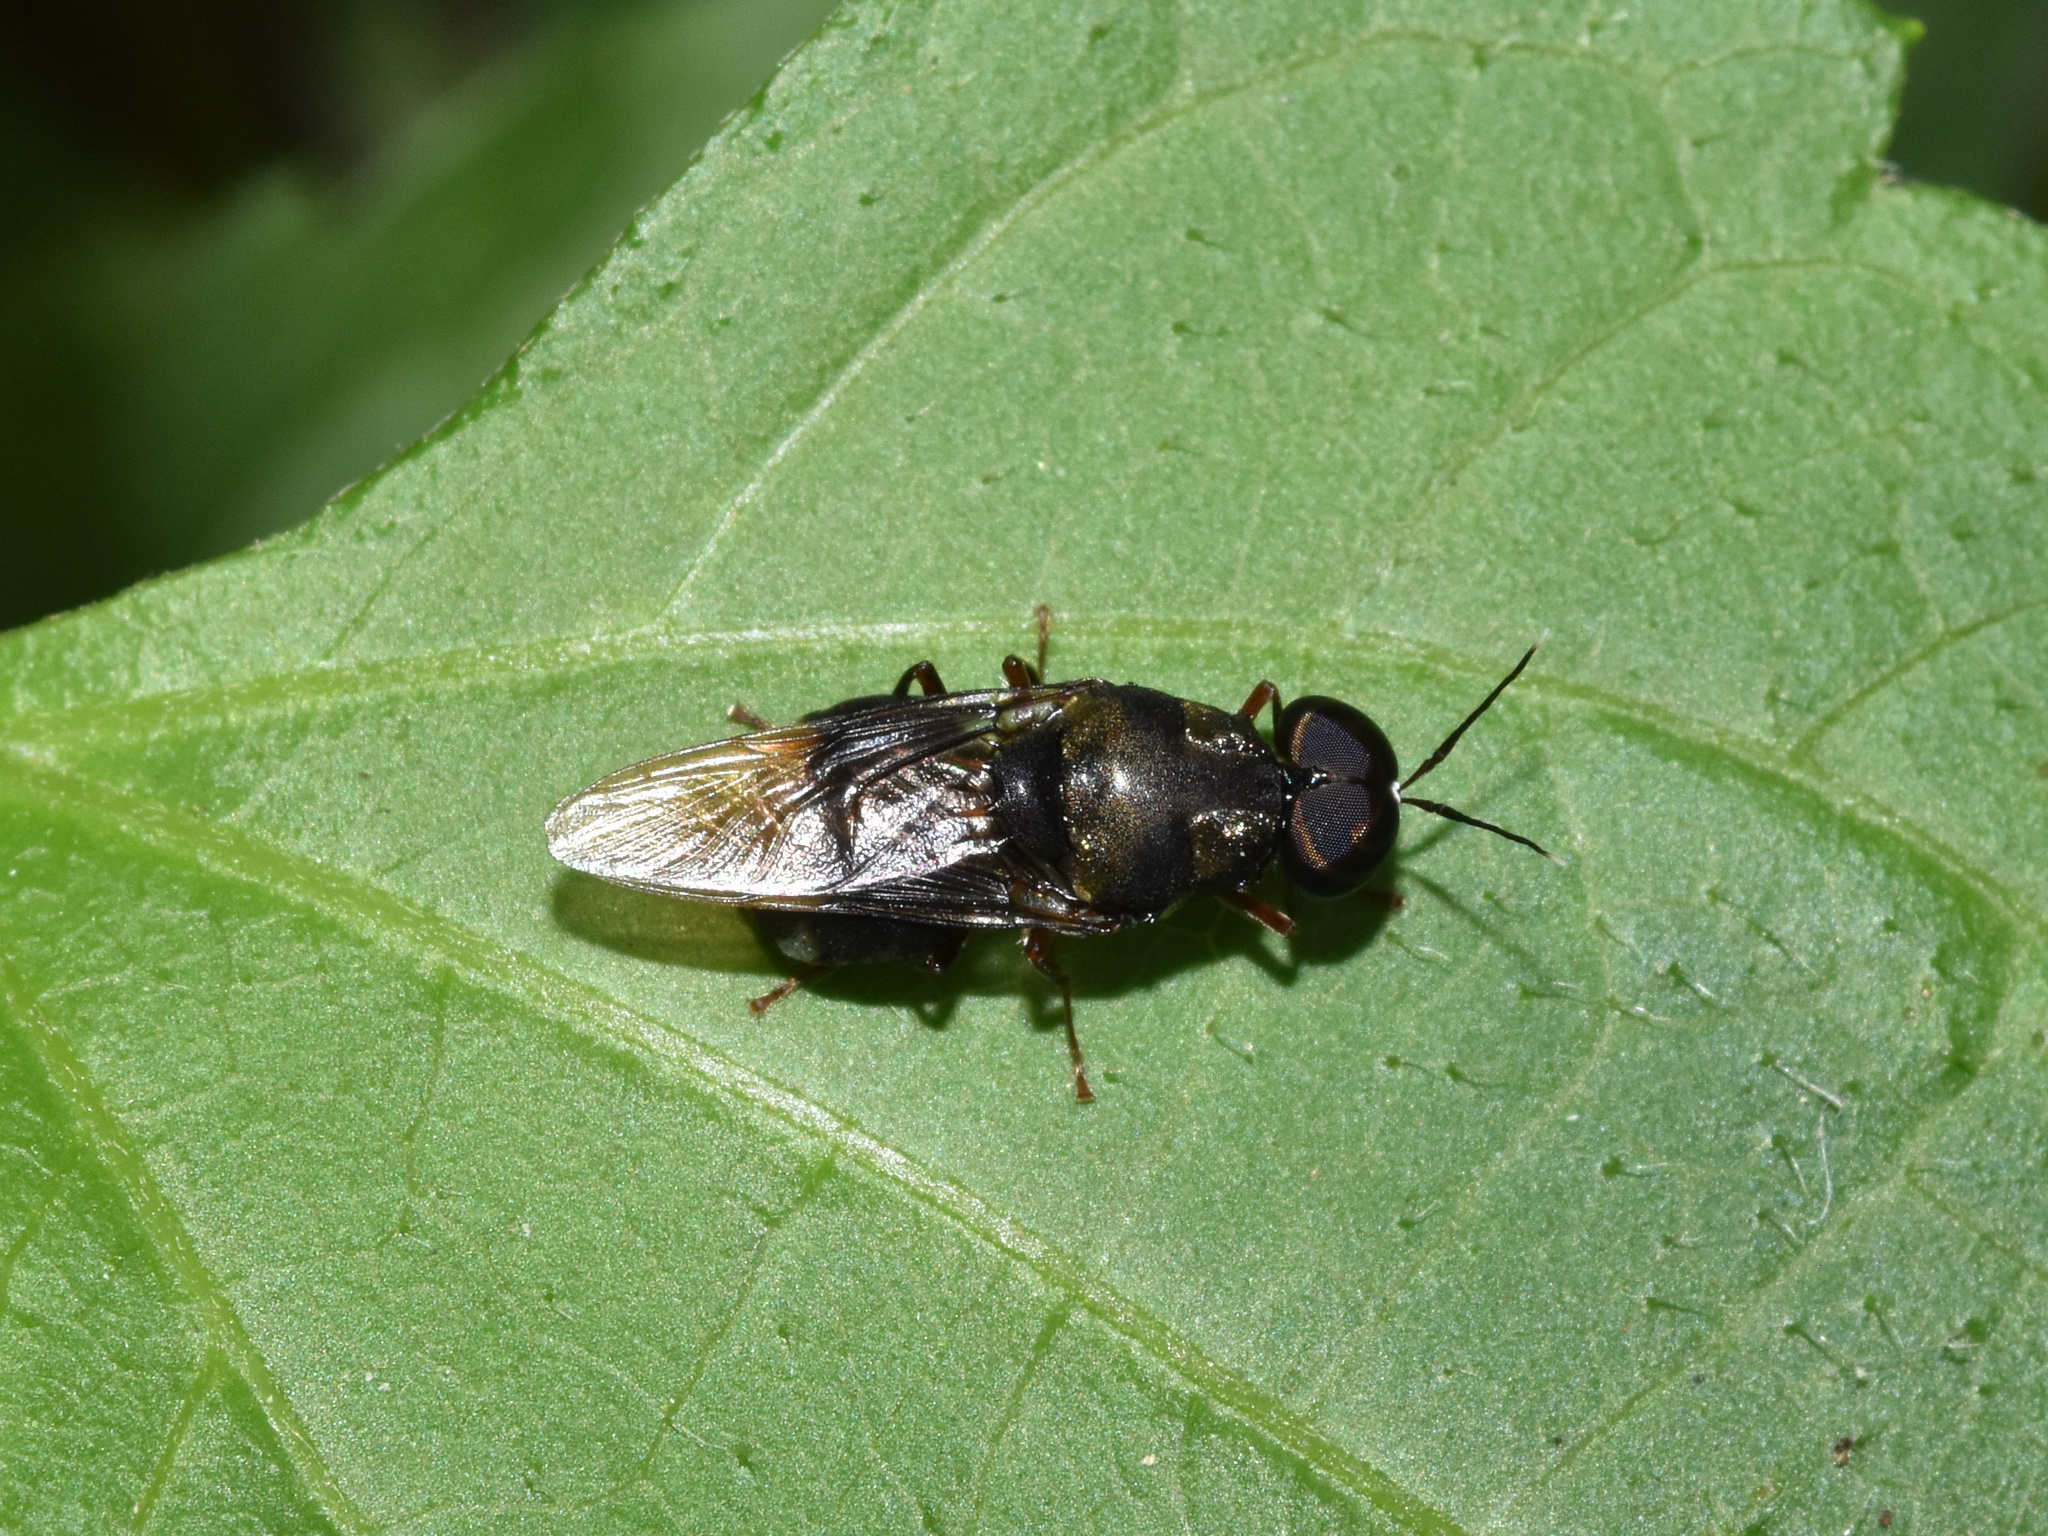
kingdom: Animalia
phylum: Arthropoda
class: Insecta
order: Diptera
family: Stratiomyidae
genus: Isomerocera
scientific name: Isomerocera quadrilineata
